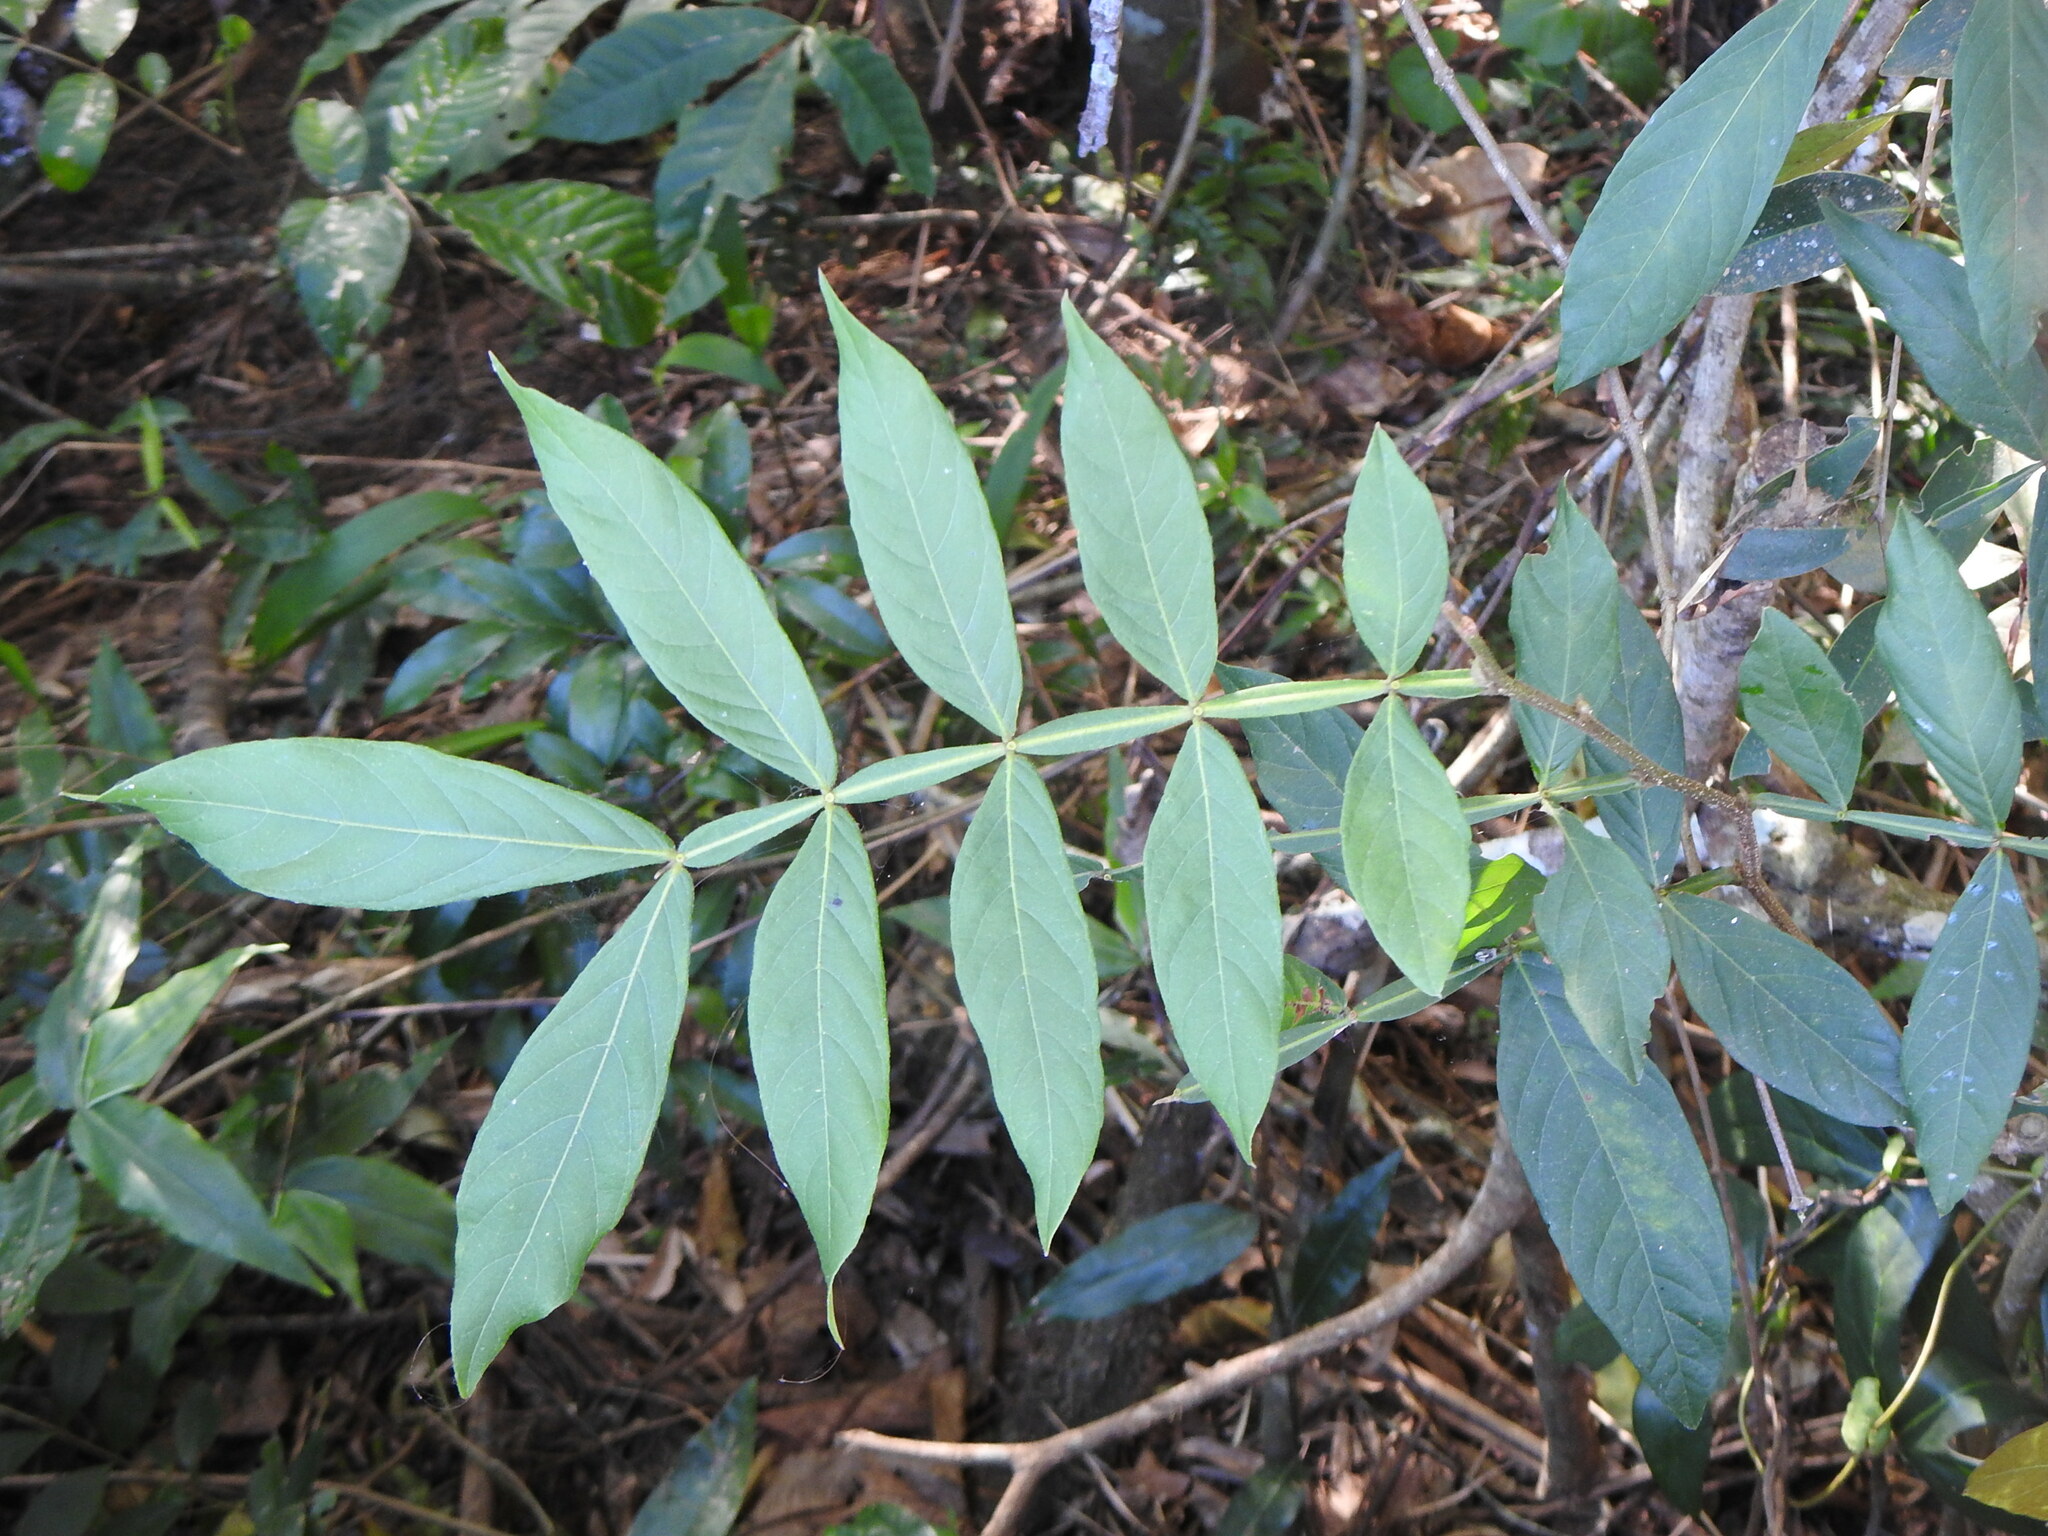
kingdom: Plantae
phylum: Tracheophyta
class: Magnoliopsida
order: Fabales
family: Fabaceae
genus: Inga
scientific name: Inga uraguensis
